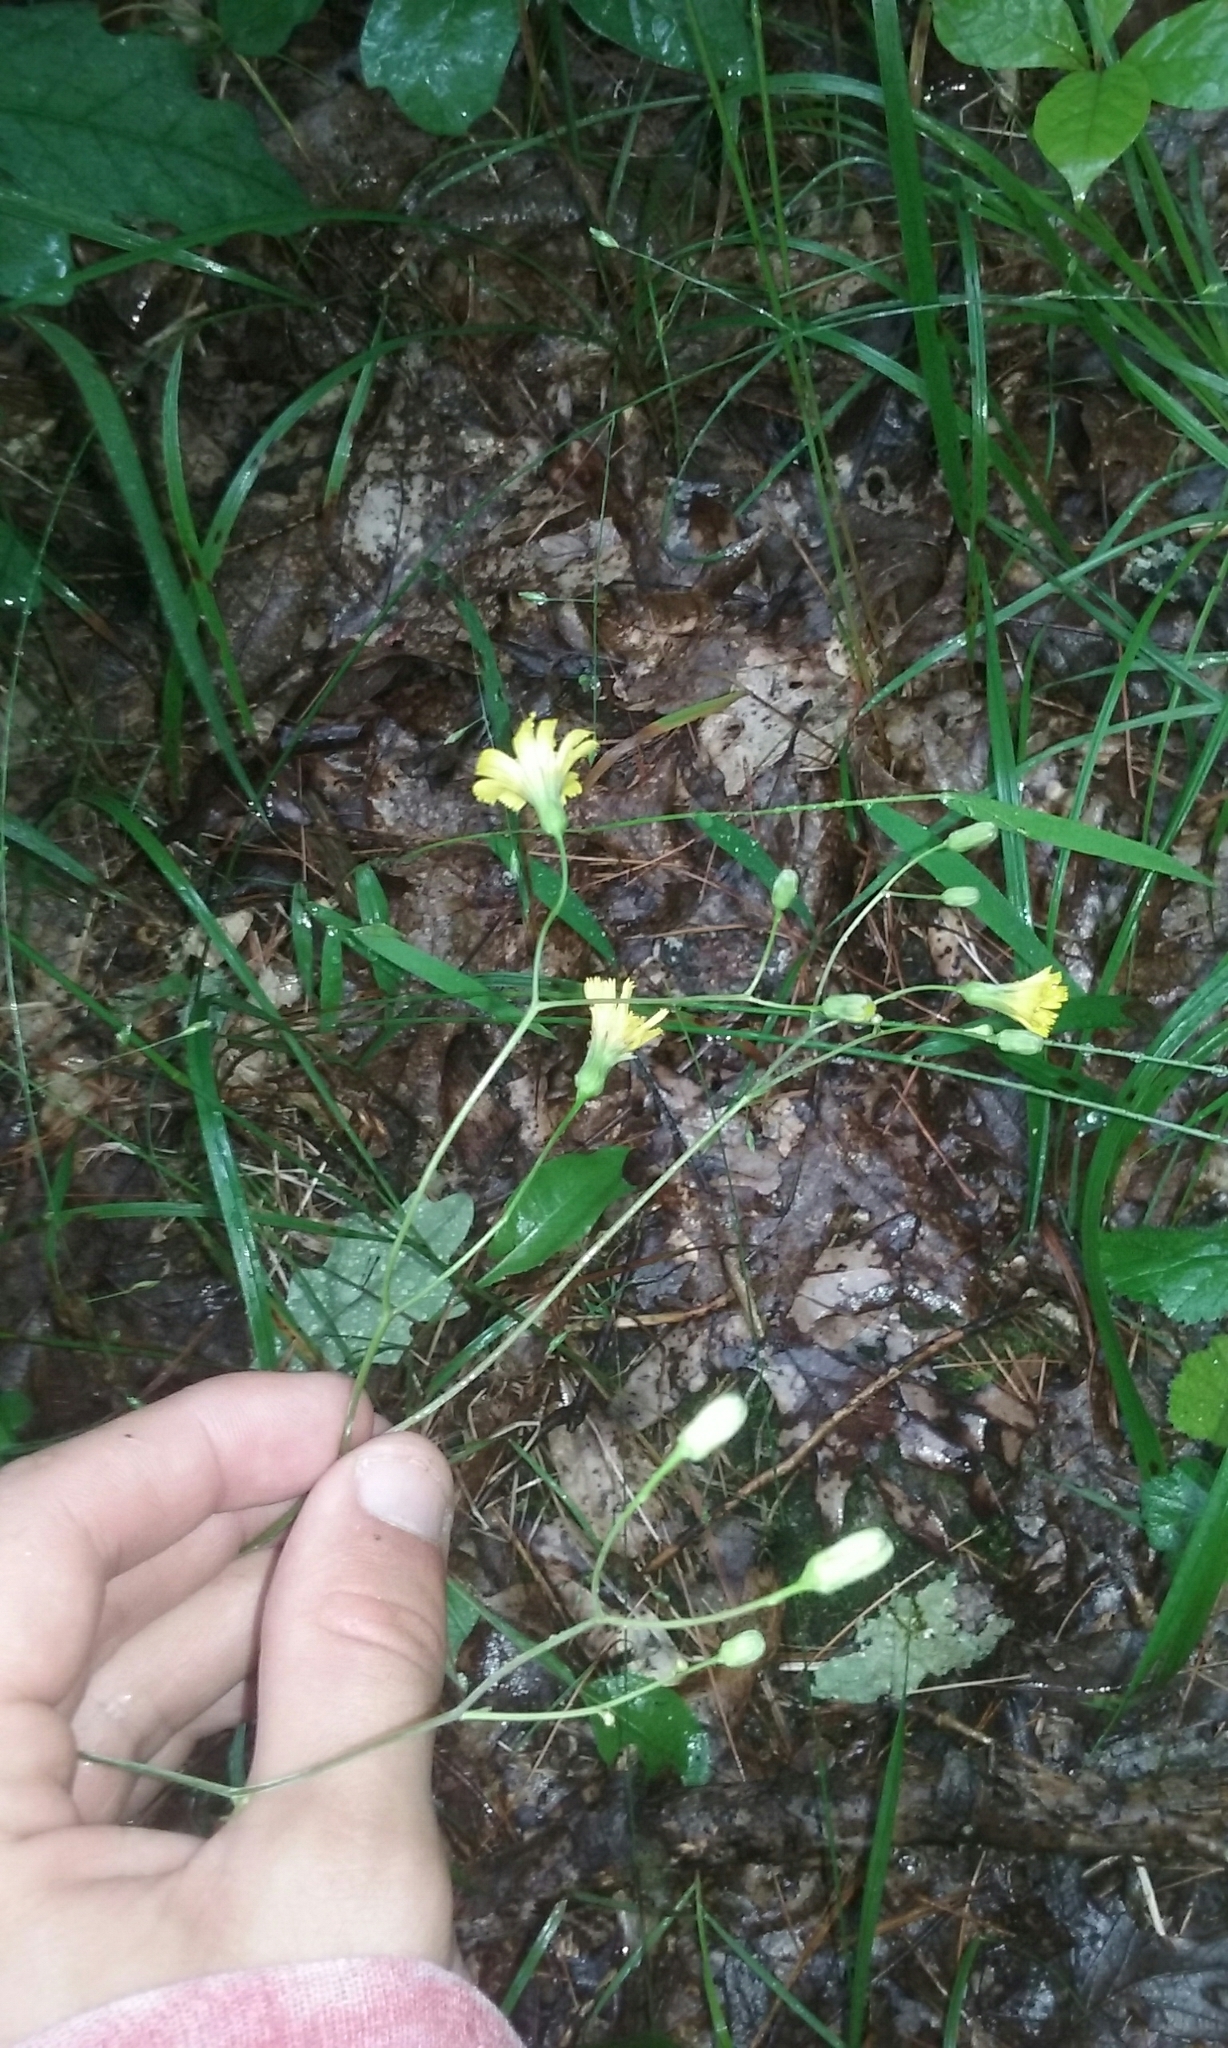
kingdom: Plantae
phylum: Tracheophyta
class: Magnoliopsida
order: Asterales
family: Asteraceae
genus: Hieracium
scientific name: Hieracium venosum
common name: Rattlesnake hawkweed
